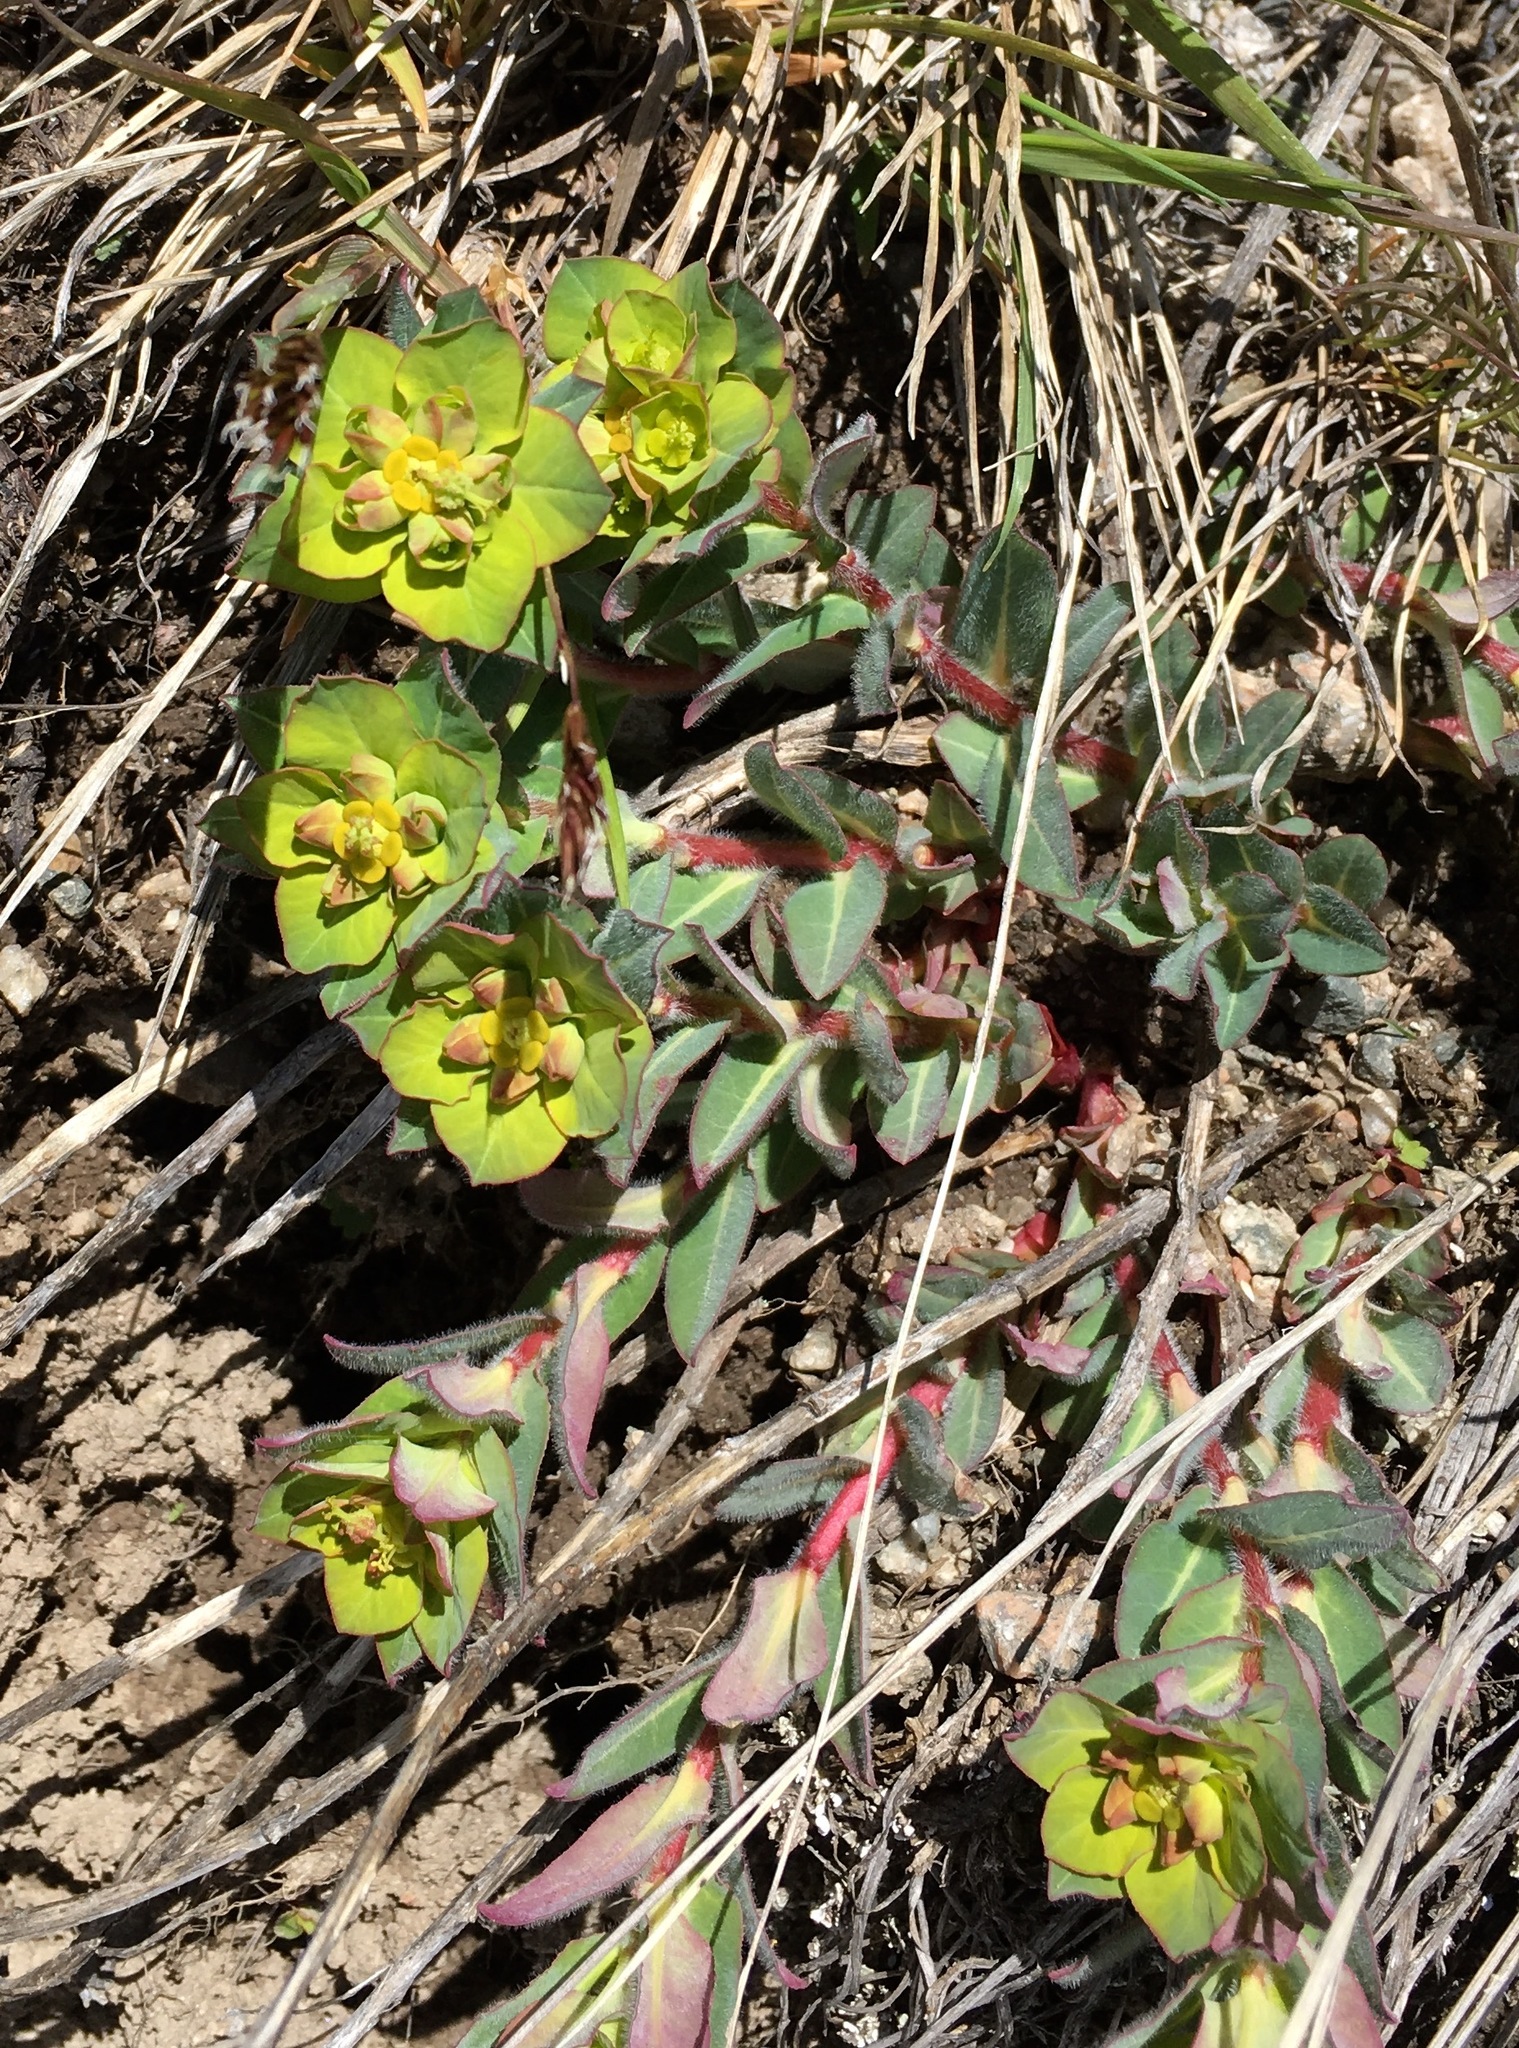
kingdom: Plantae
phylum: Tracheophyta
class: Magnoliopsida
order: Malpighiales
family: Euphorbiaceae
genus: Euphorbia
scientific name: Euphorbia alatavica
